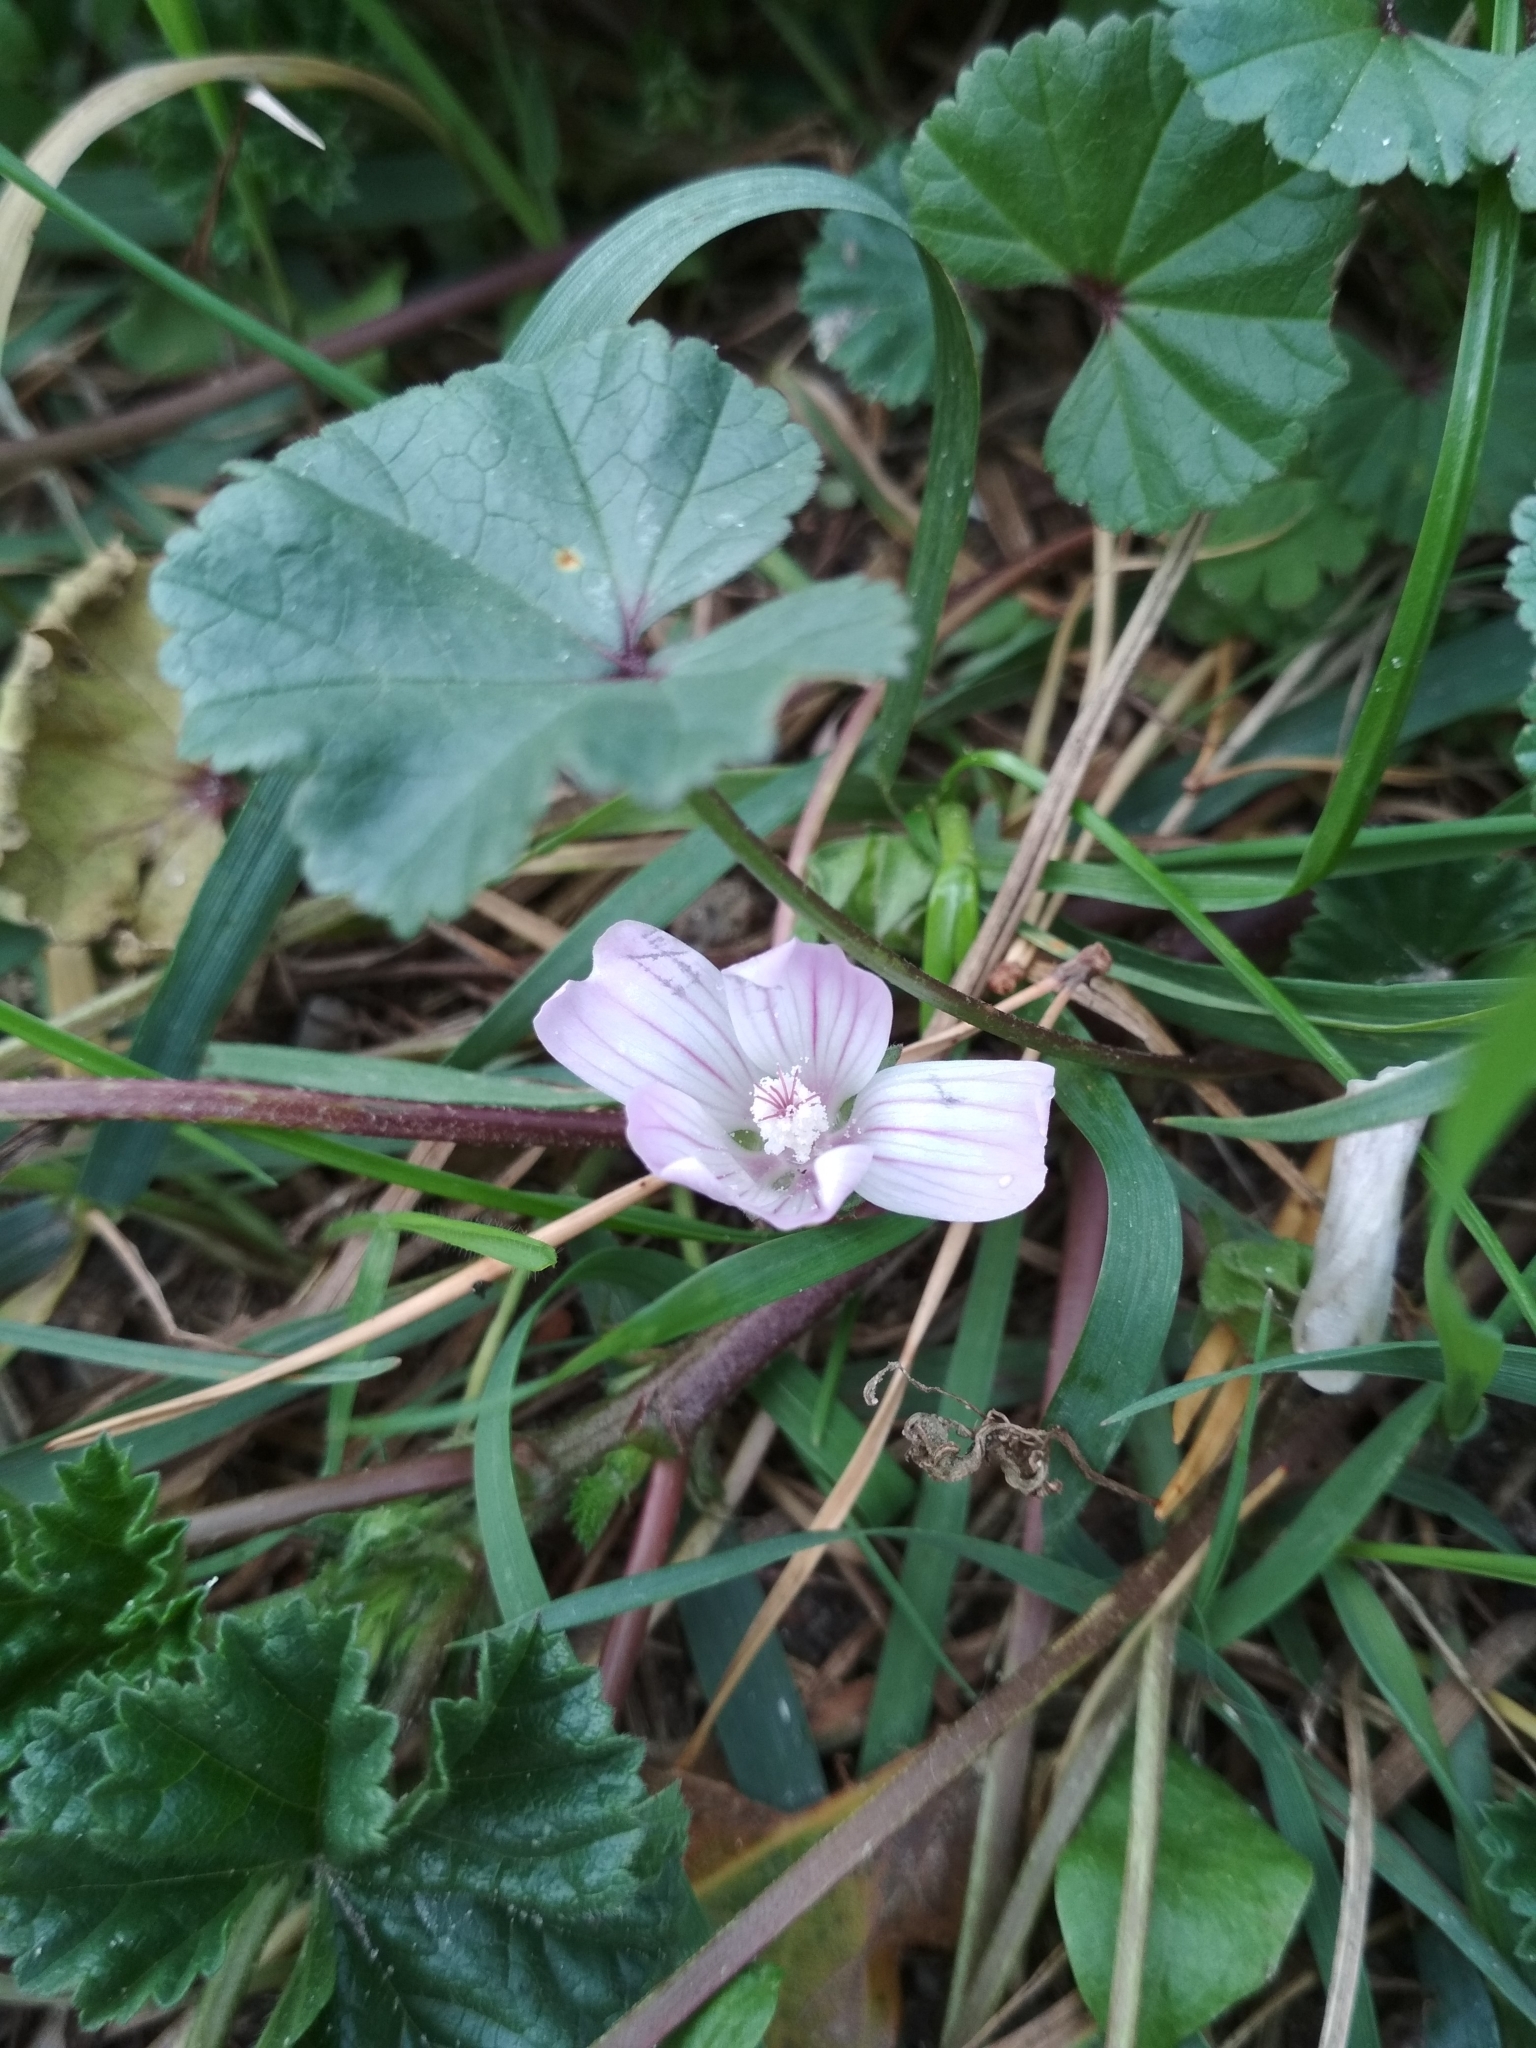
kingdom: Plantae
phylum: Tracheophyta
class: Magnoliopsida
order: Malvales
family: Malvaceae
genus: Malva
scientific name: Malva neglecta
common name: Common mallow
